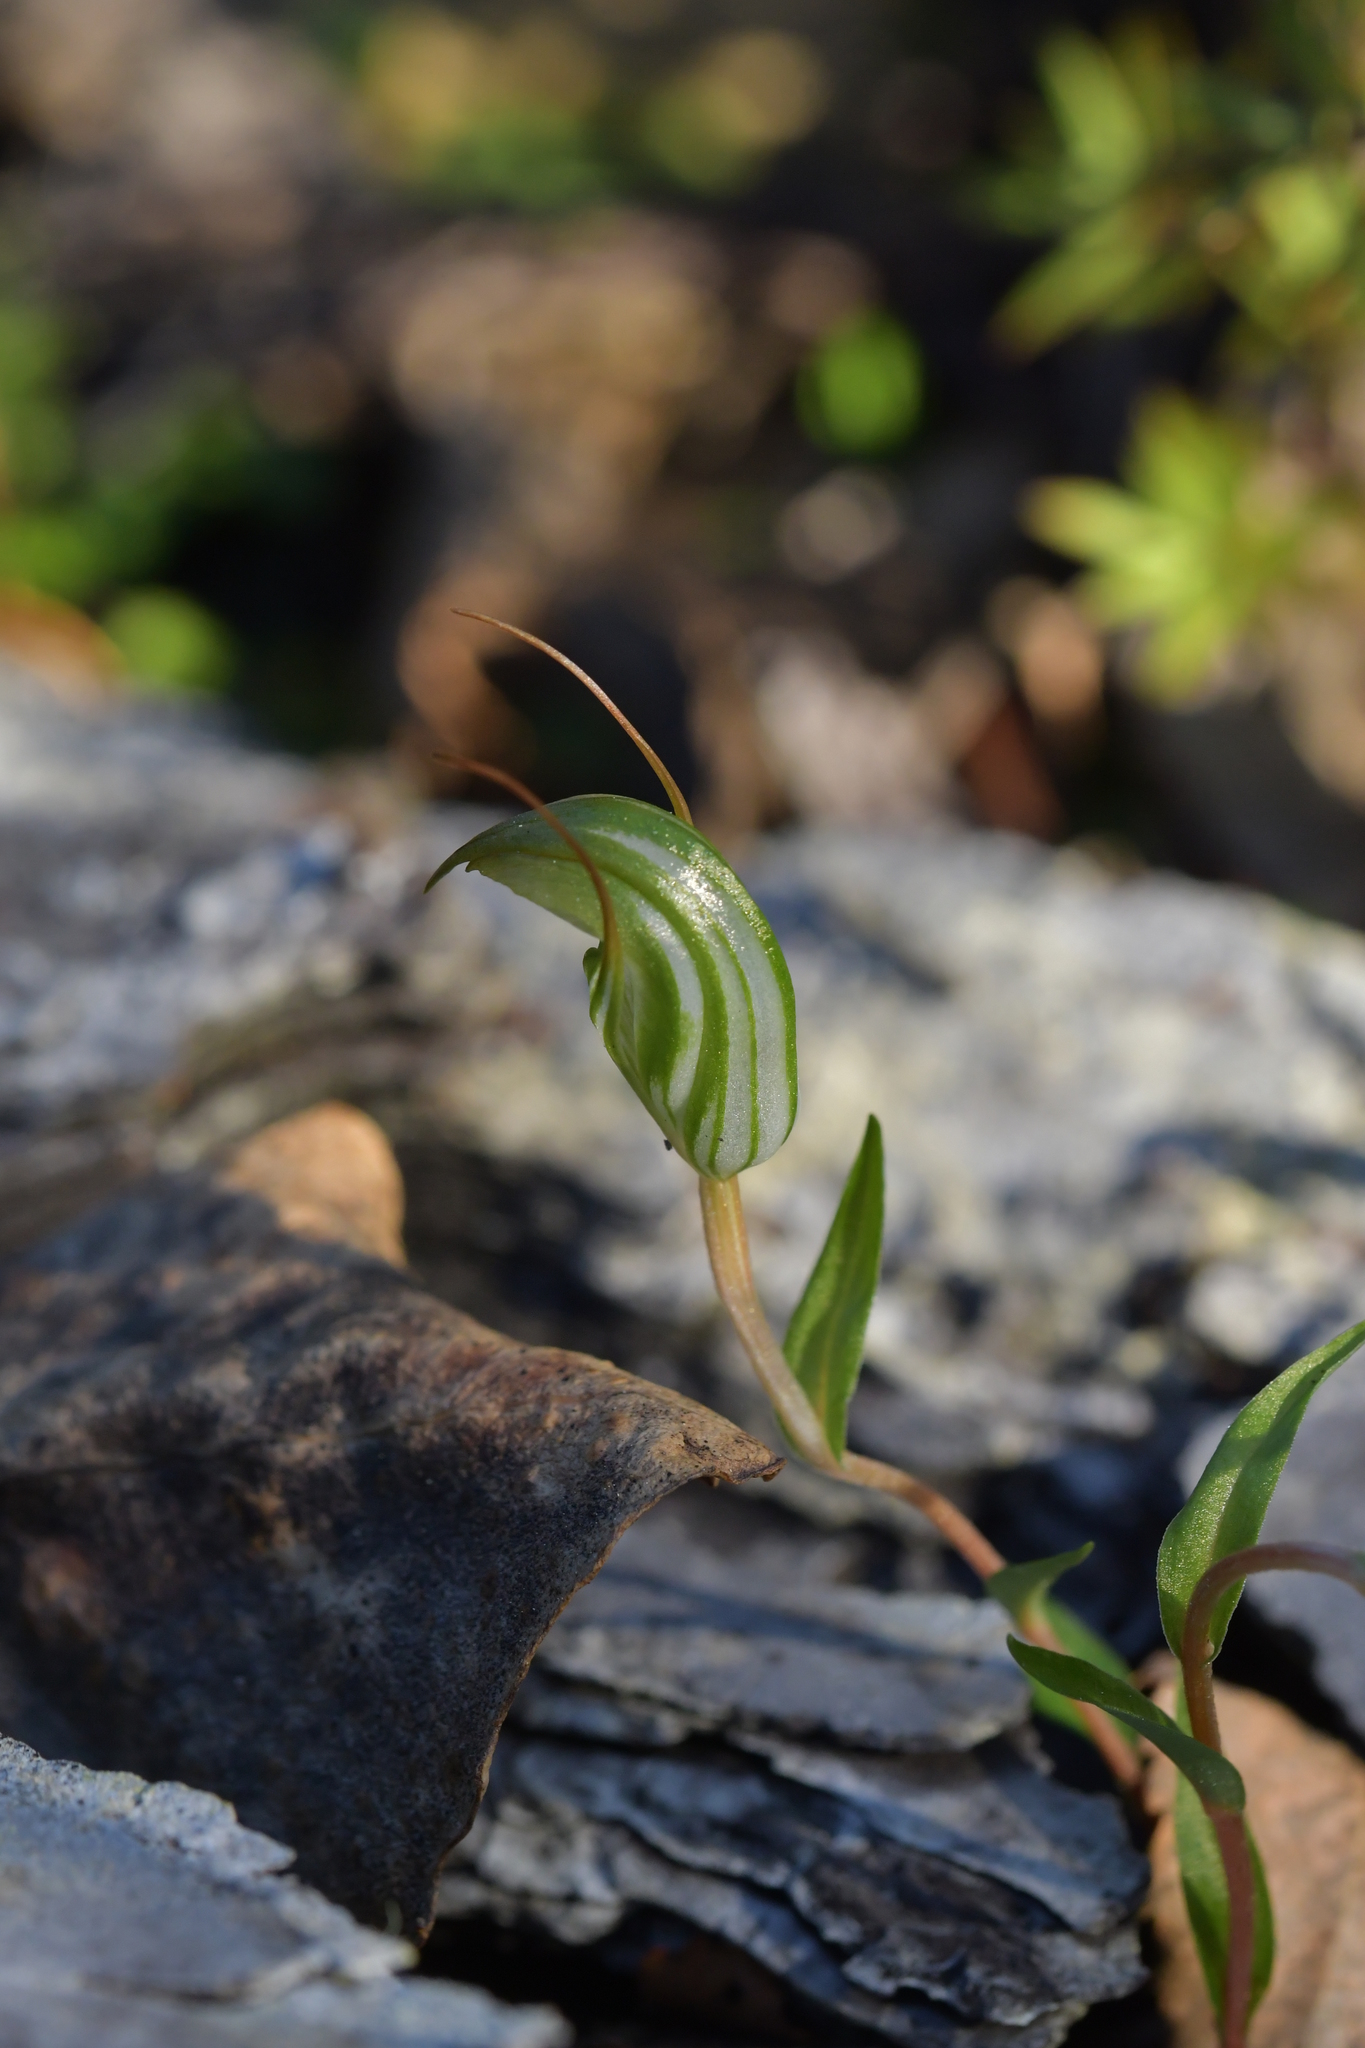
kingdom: Plantae
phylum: Tracheophyta
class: Liliopsida
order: Asparagales
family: Orchidaceae
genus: Pterostylis
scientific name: Pterostylis alobula
